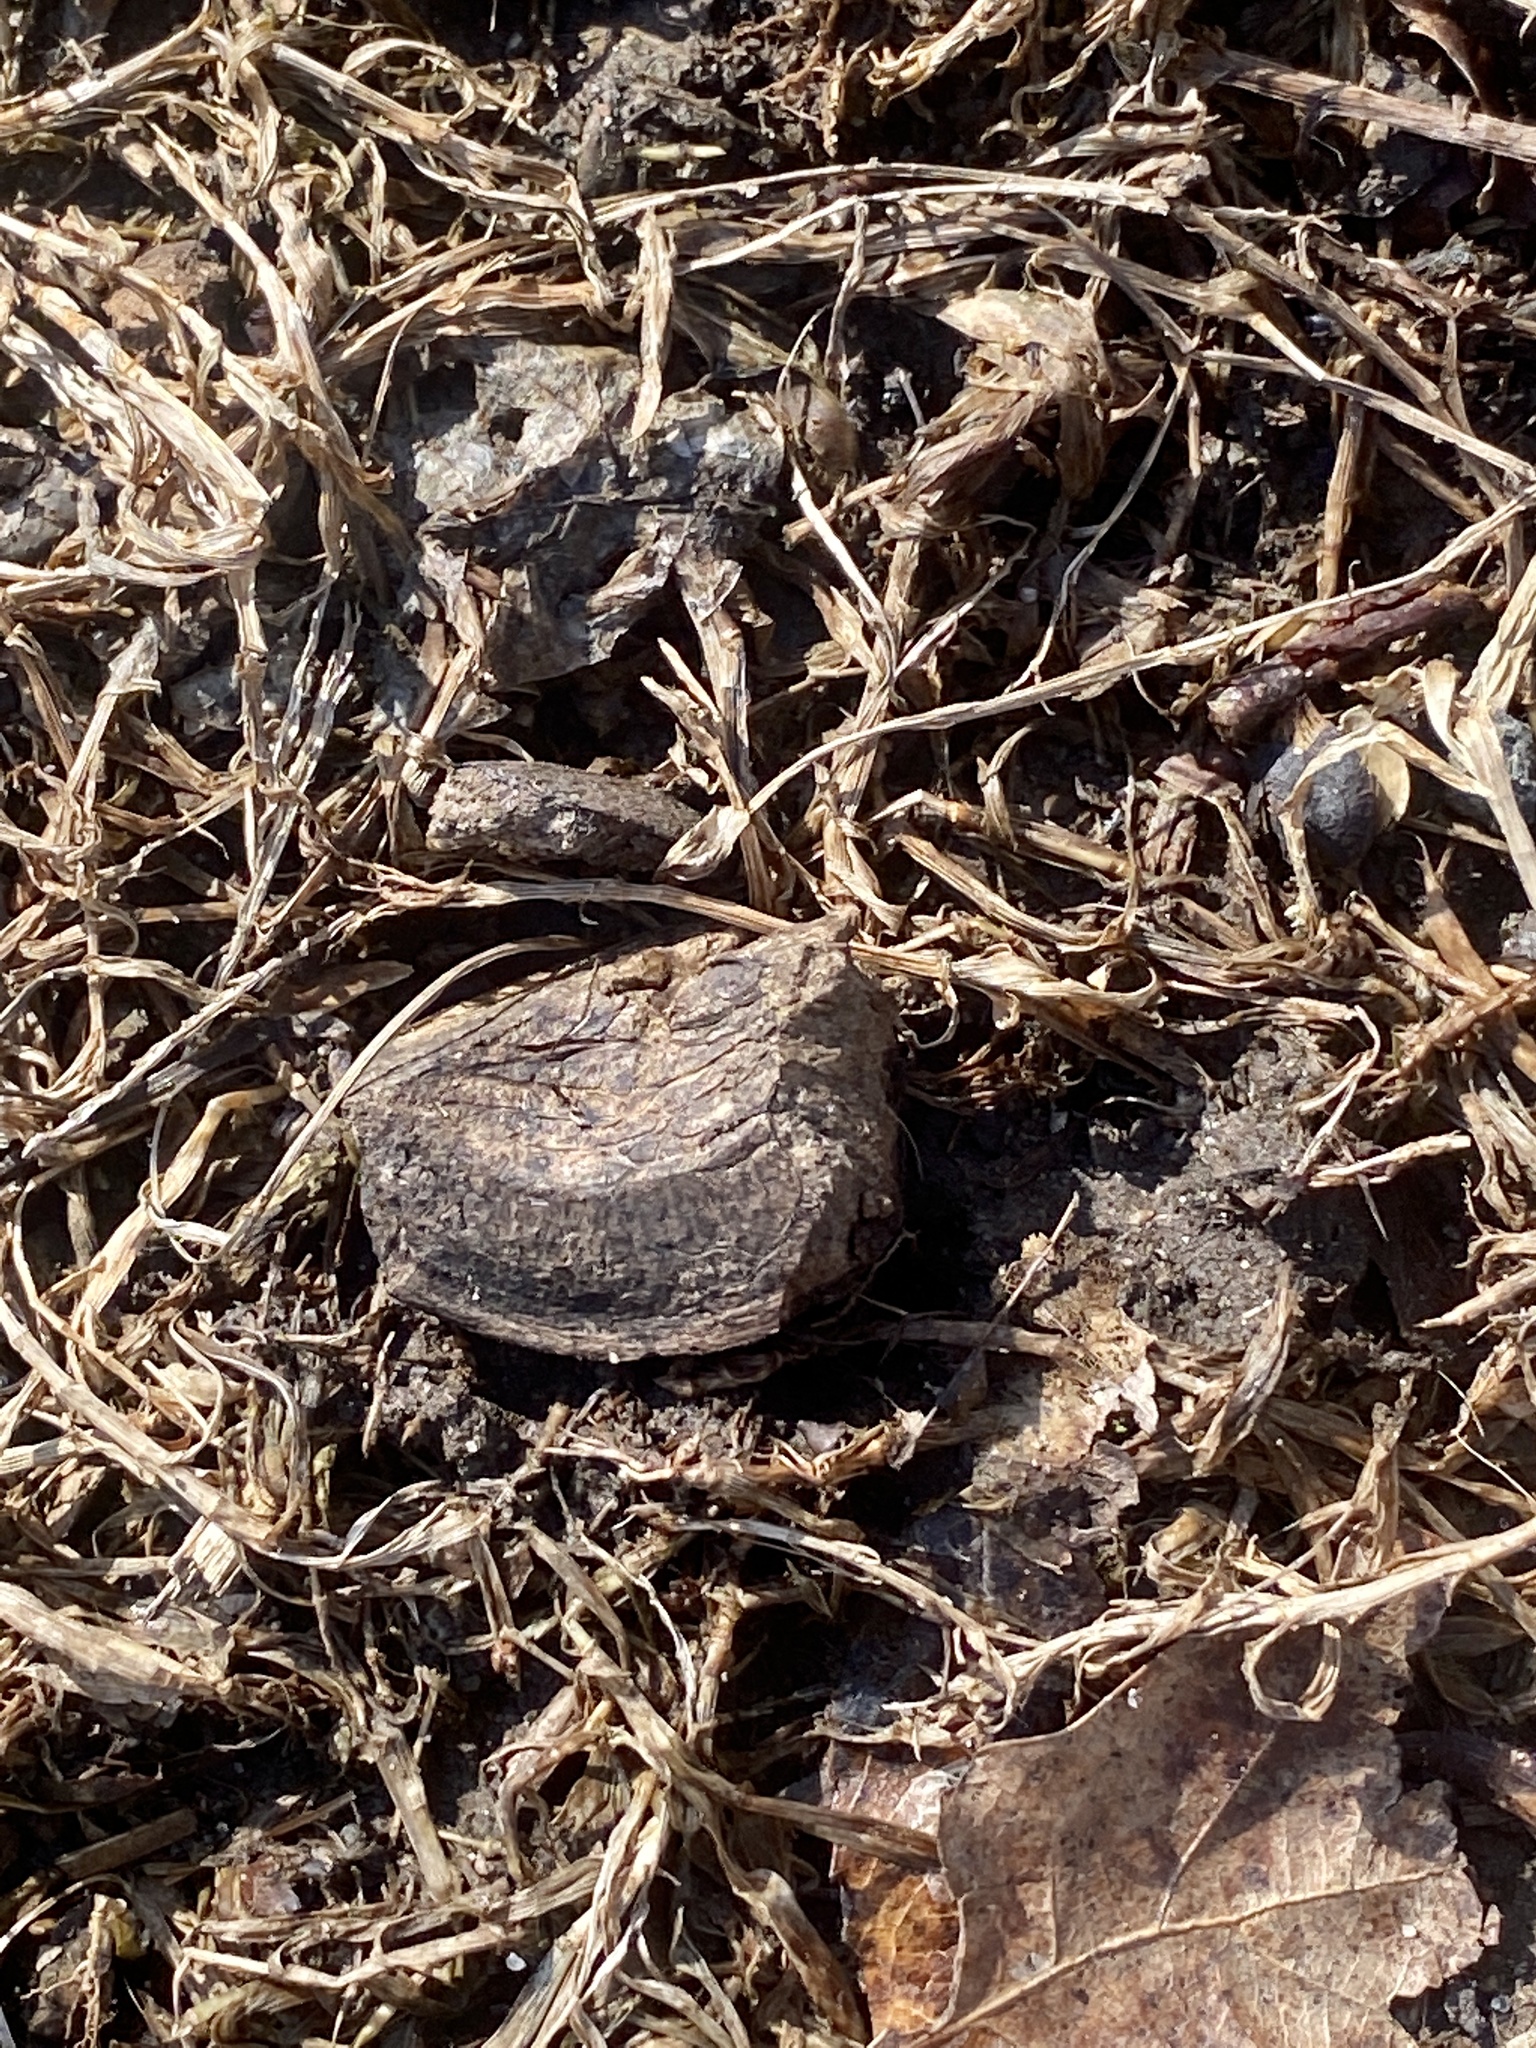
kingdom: Plantae
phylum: Tracheophyta
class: Magnoliopsida
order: Fagales
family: Juglandaceae
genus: Carya
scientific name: Carya ovata
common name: Shagbark hickory
